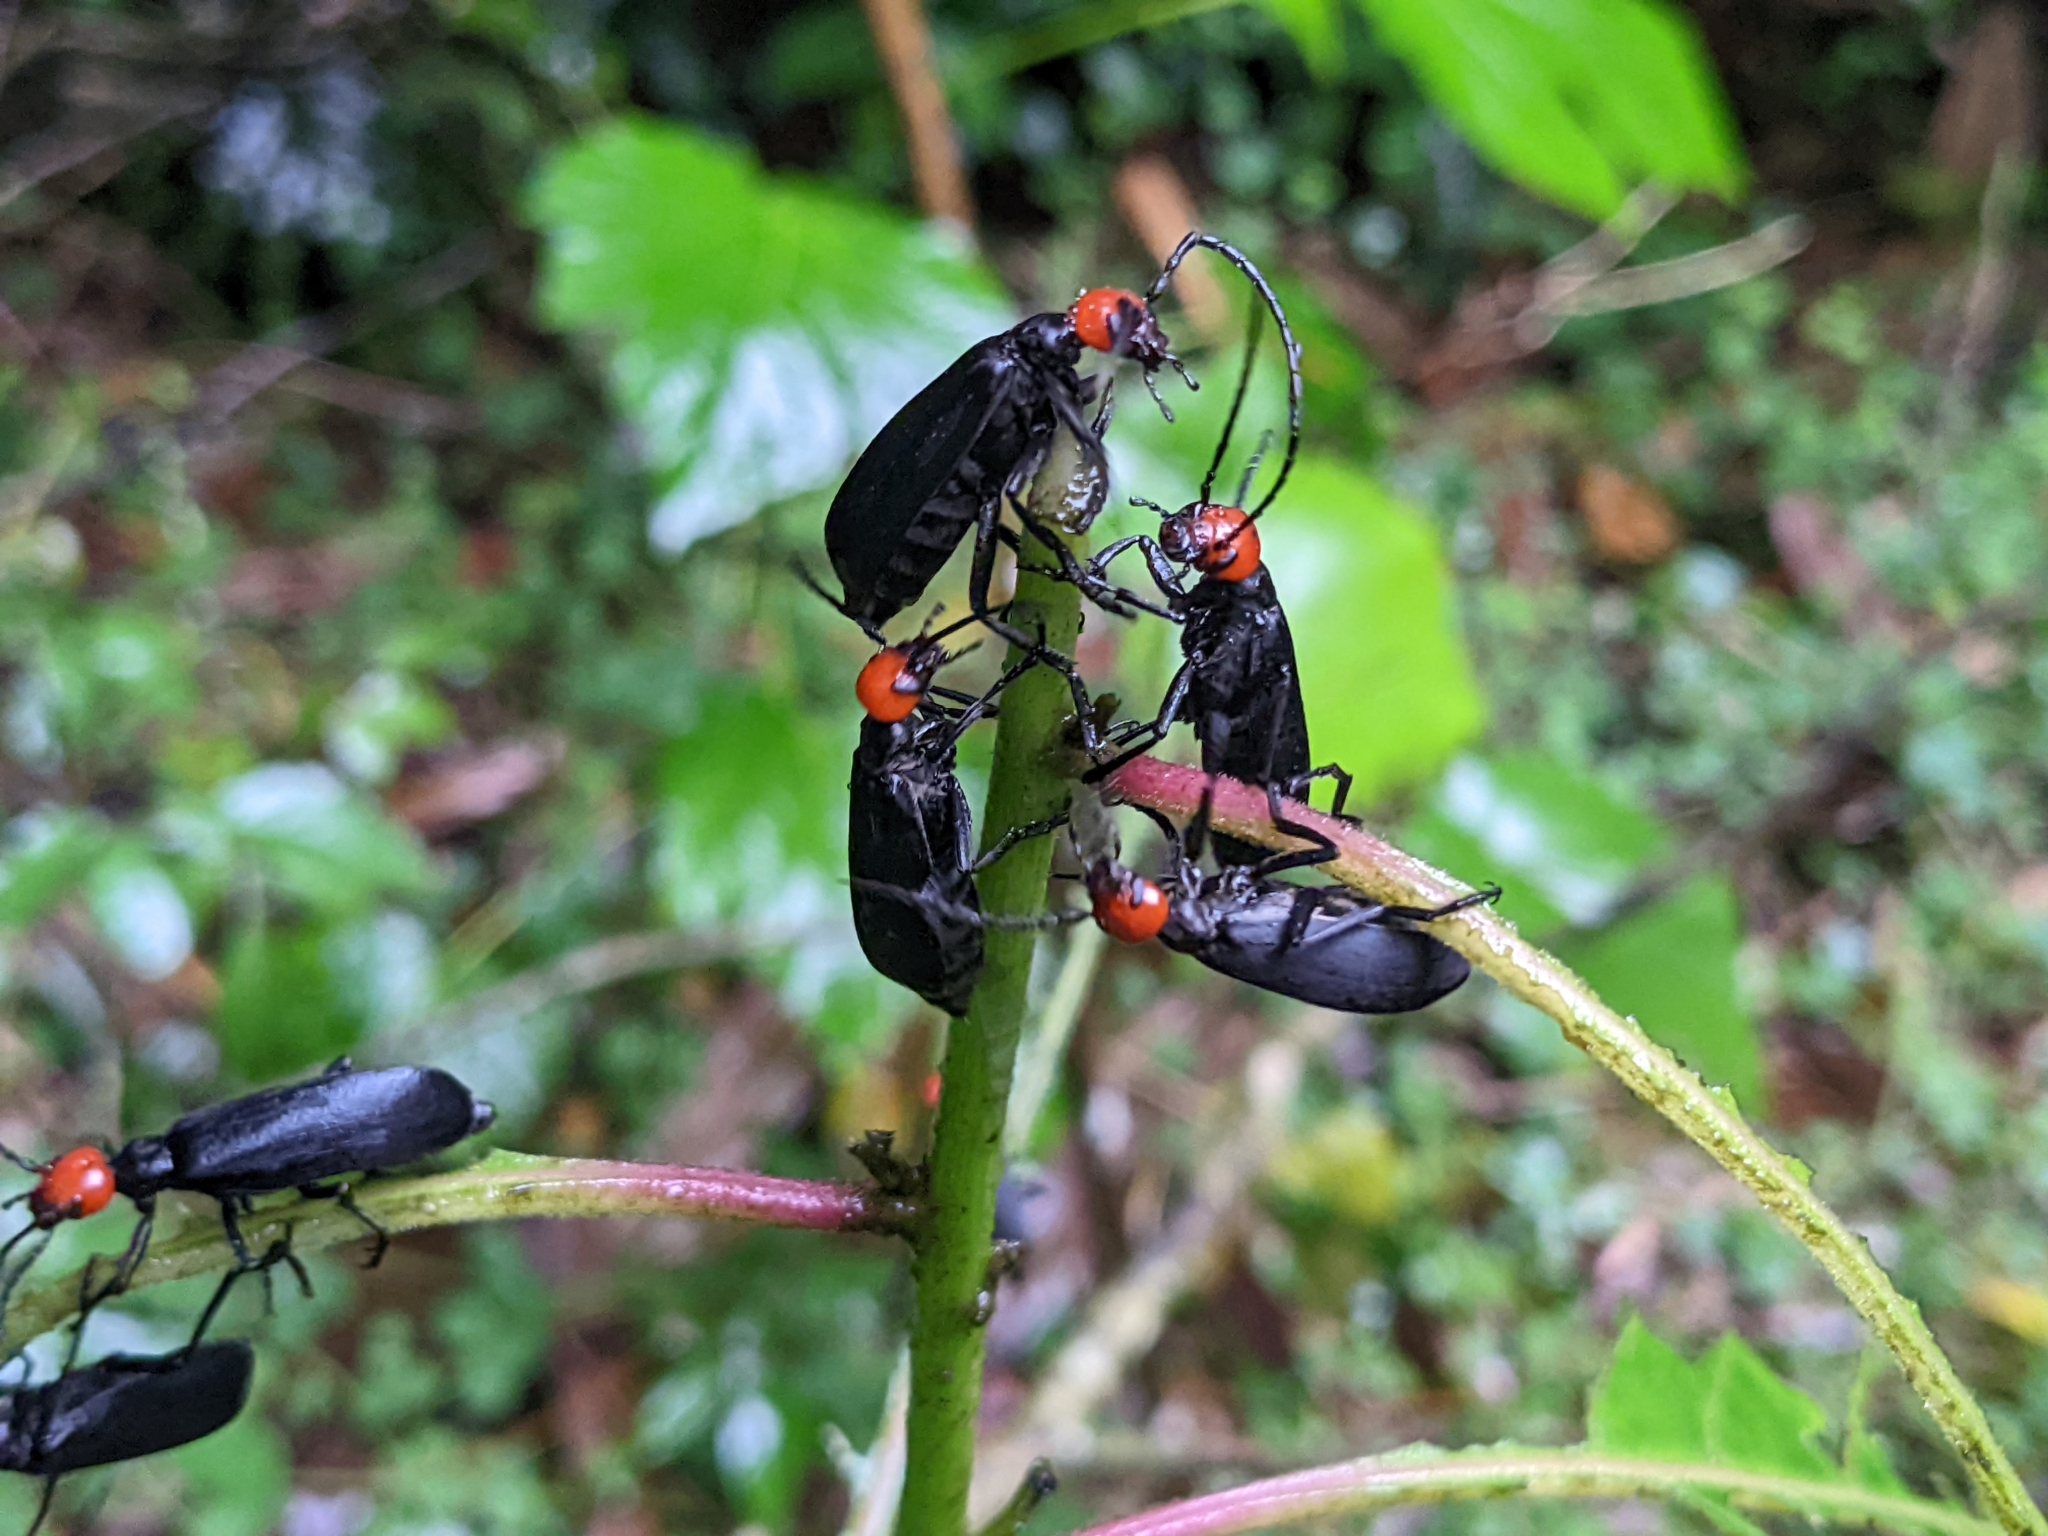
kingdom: Animalia
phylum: Arthropoda
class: Insecta
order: Coleoptera
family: Meloidae
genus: Epicauta
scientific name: Epicauta hirticornis
